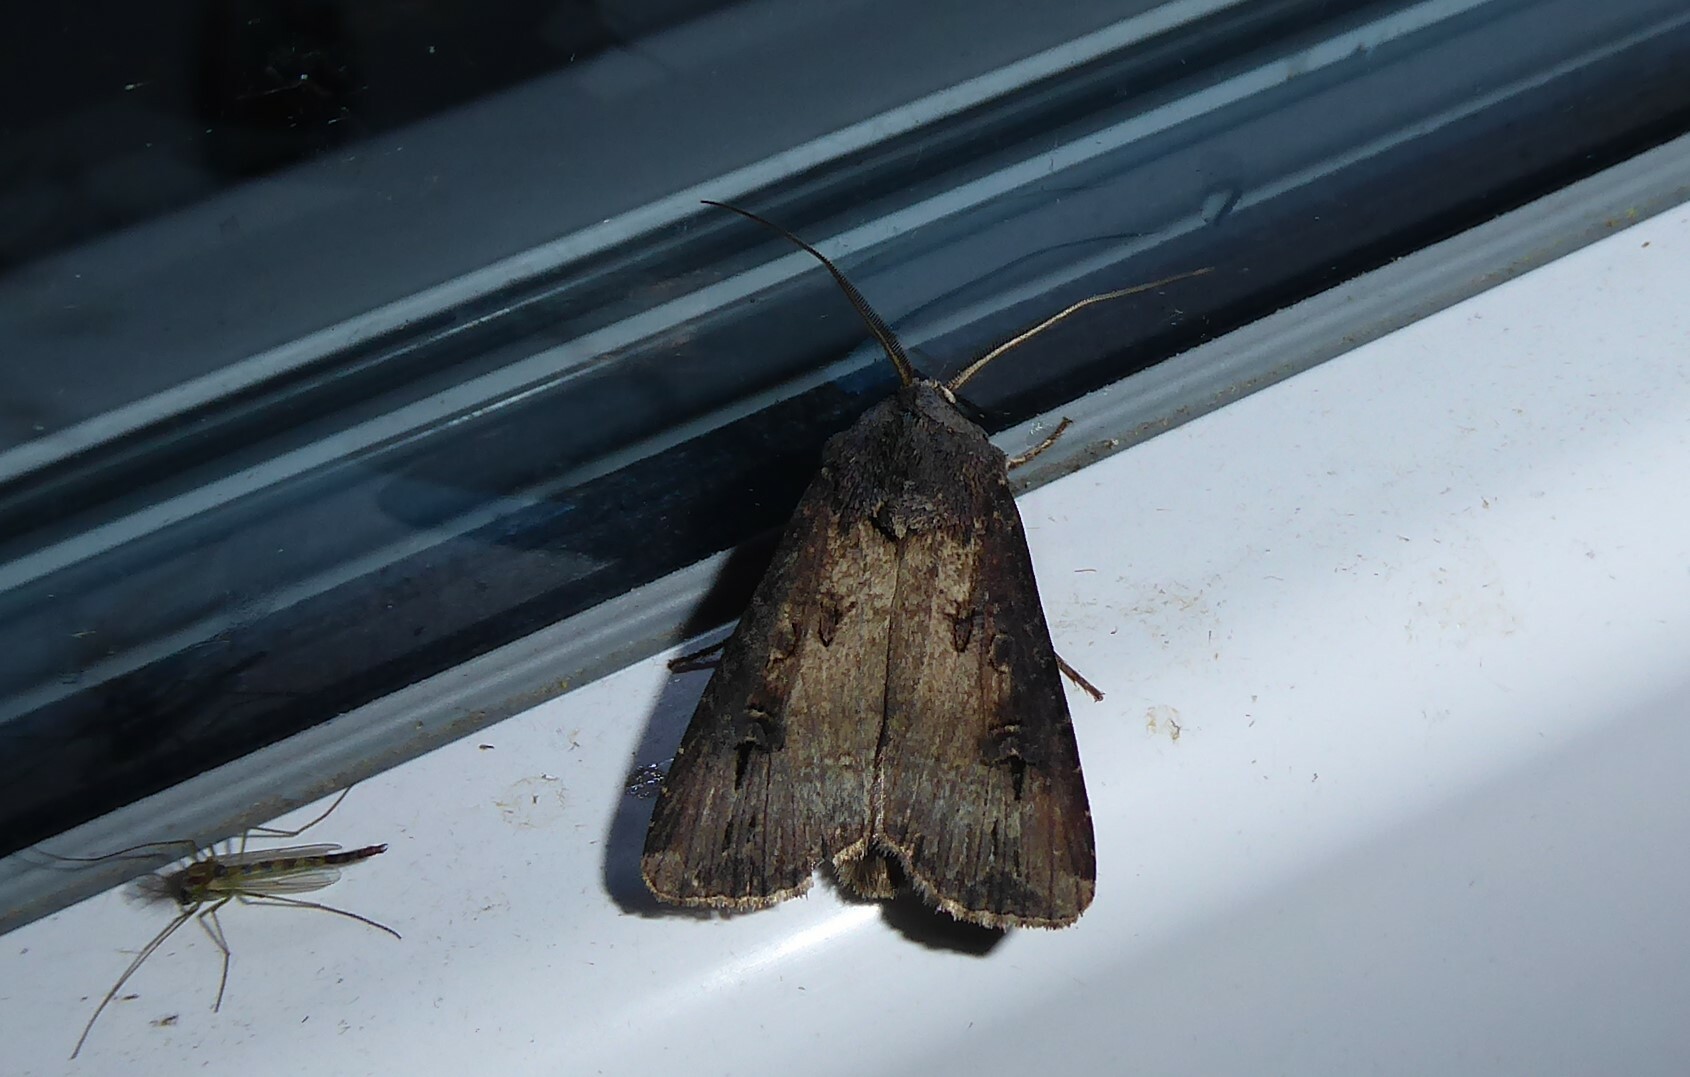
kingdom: Animalia
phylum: Arthropoda
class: Insecta
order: Lepidoptera
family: Noctuidae
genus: Agrotis
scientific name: Agrotis ipsilon
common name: Dark sword-grass
